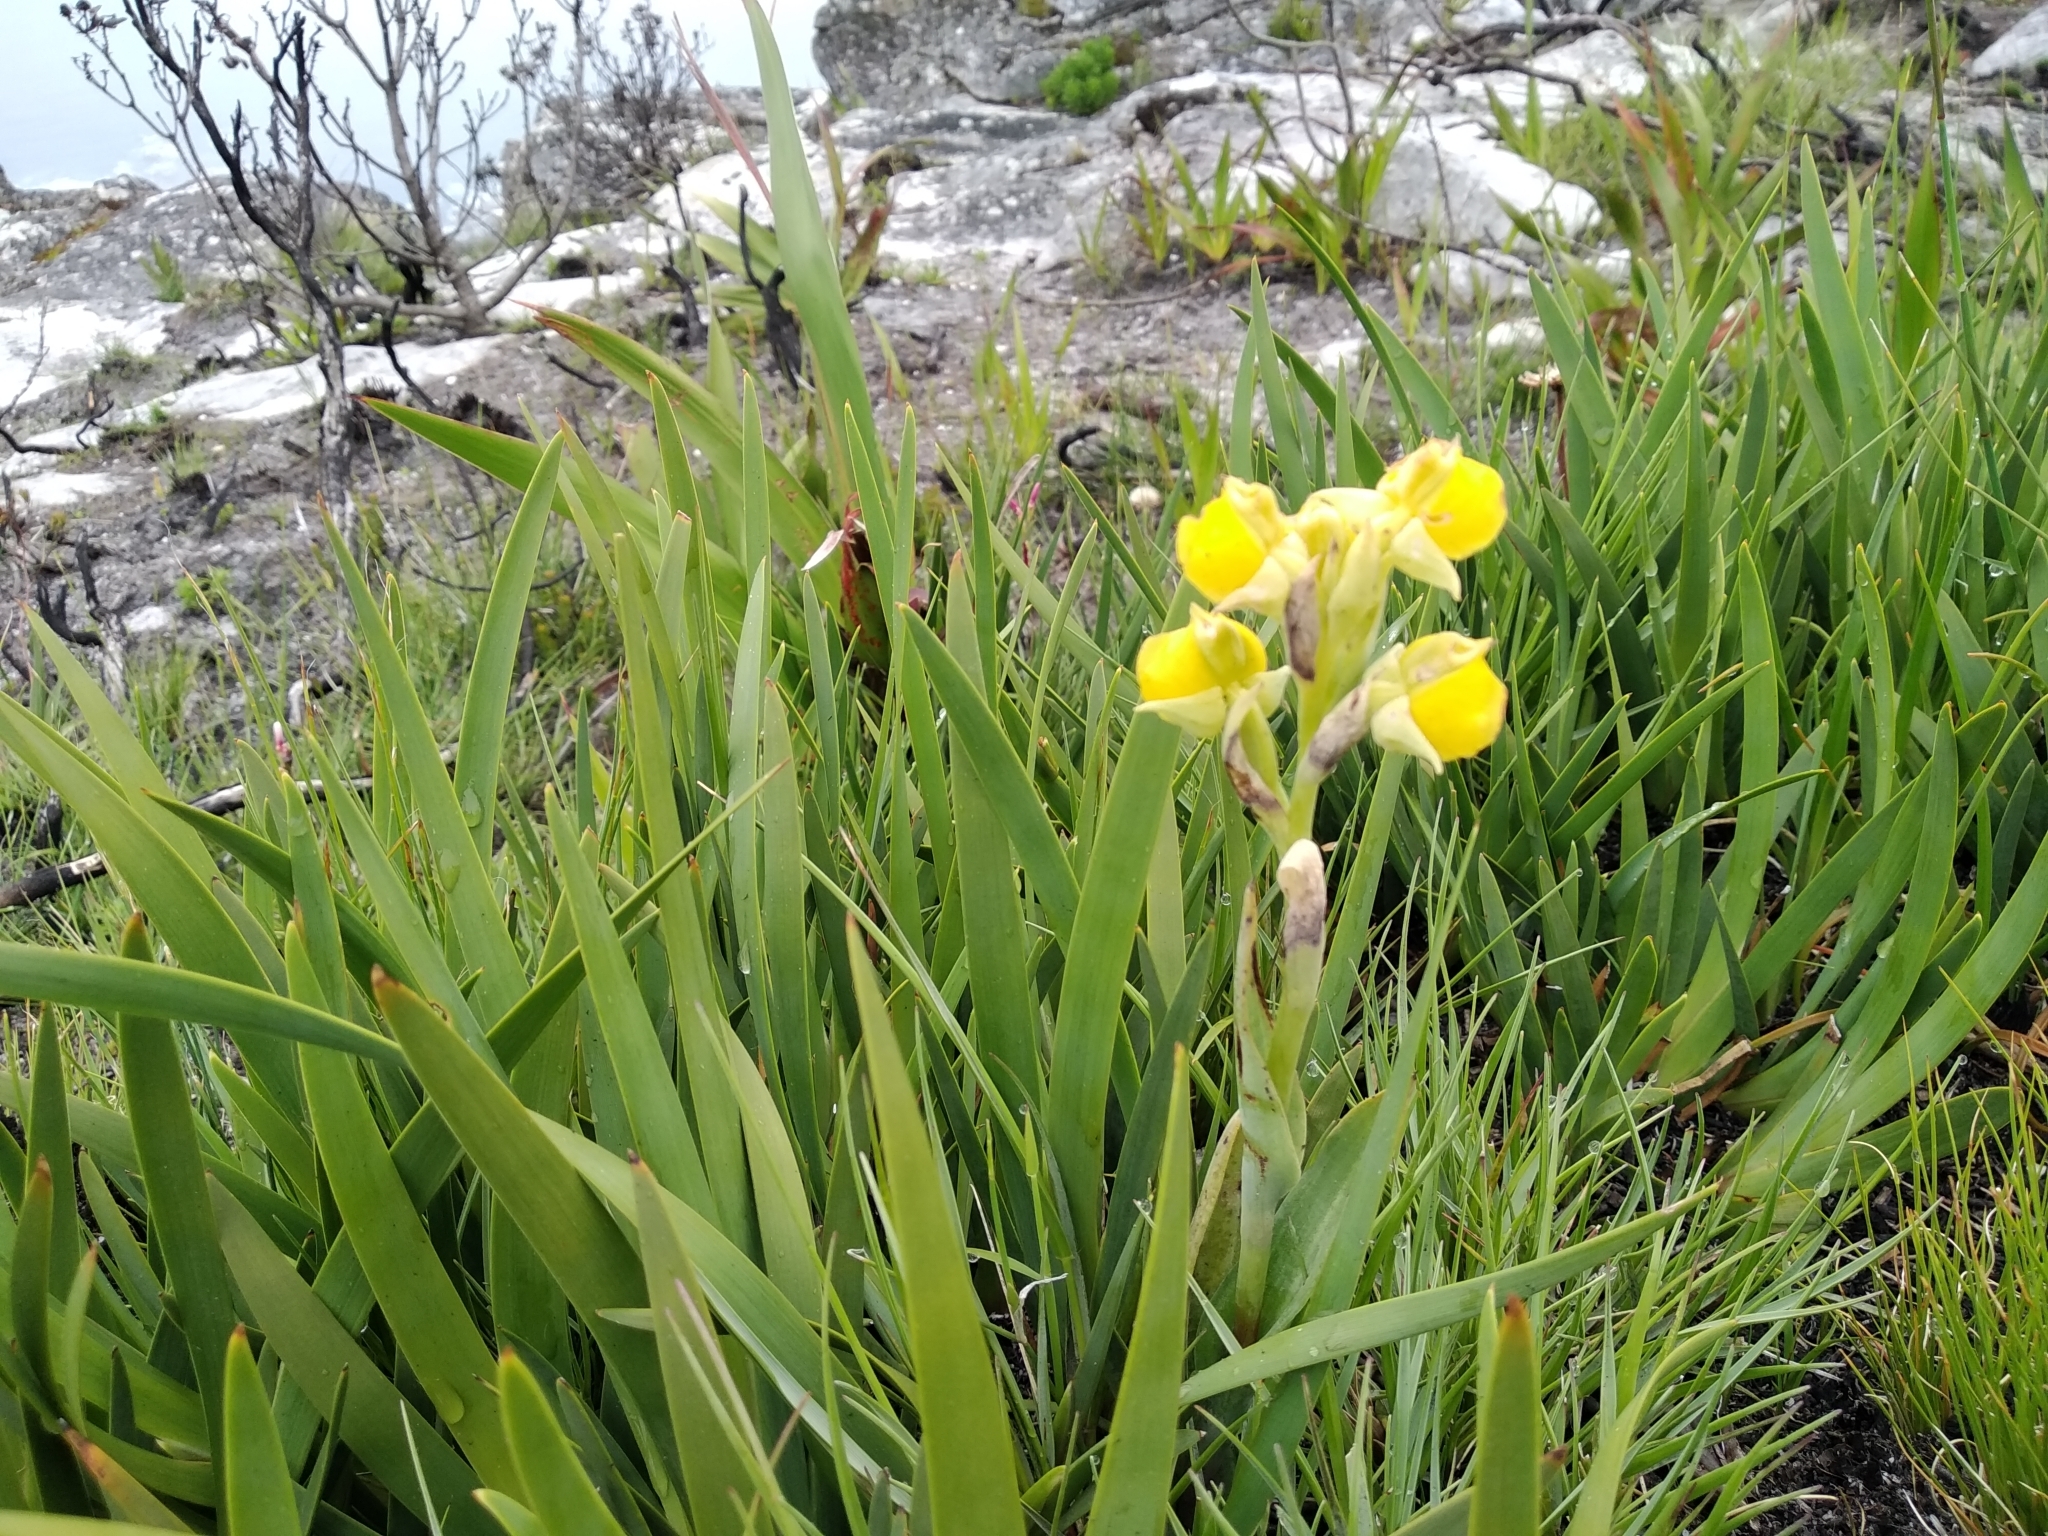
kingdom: Plantae
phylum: Tracheophyta
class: Liliopsida
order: Asparagales
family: Orchidaceae
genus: Pterygodium
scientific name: Pterygodium acutifolium
